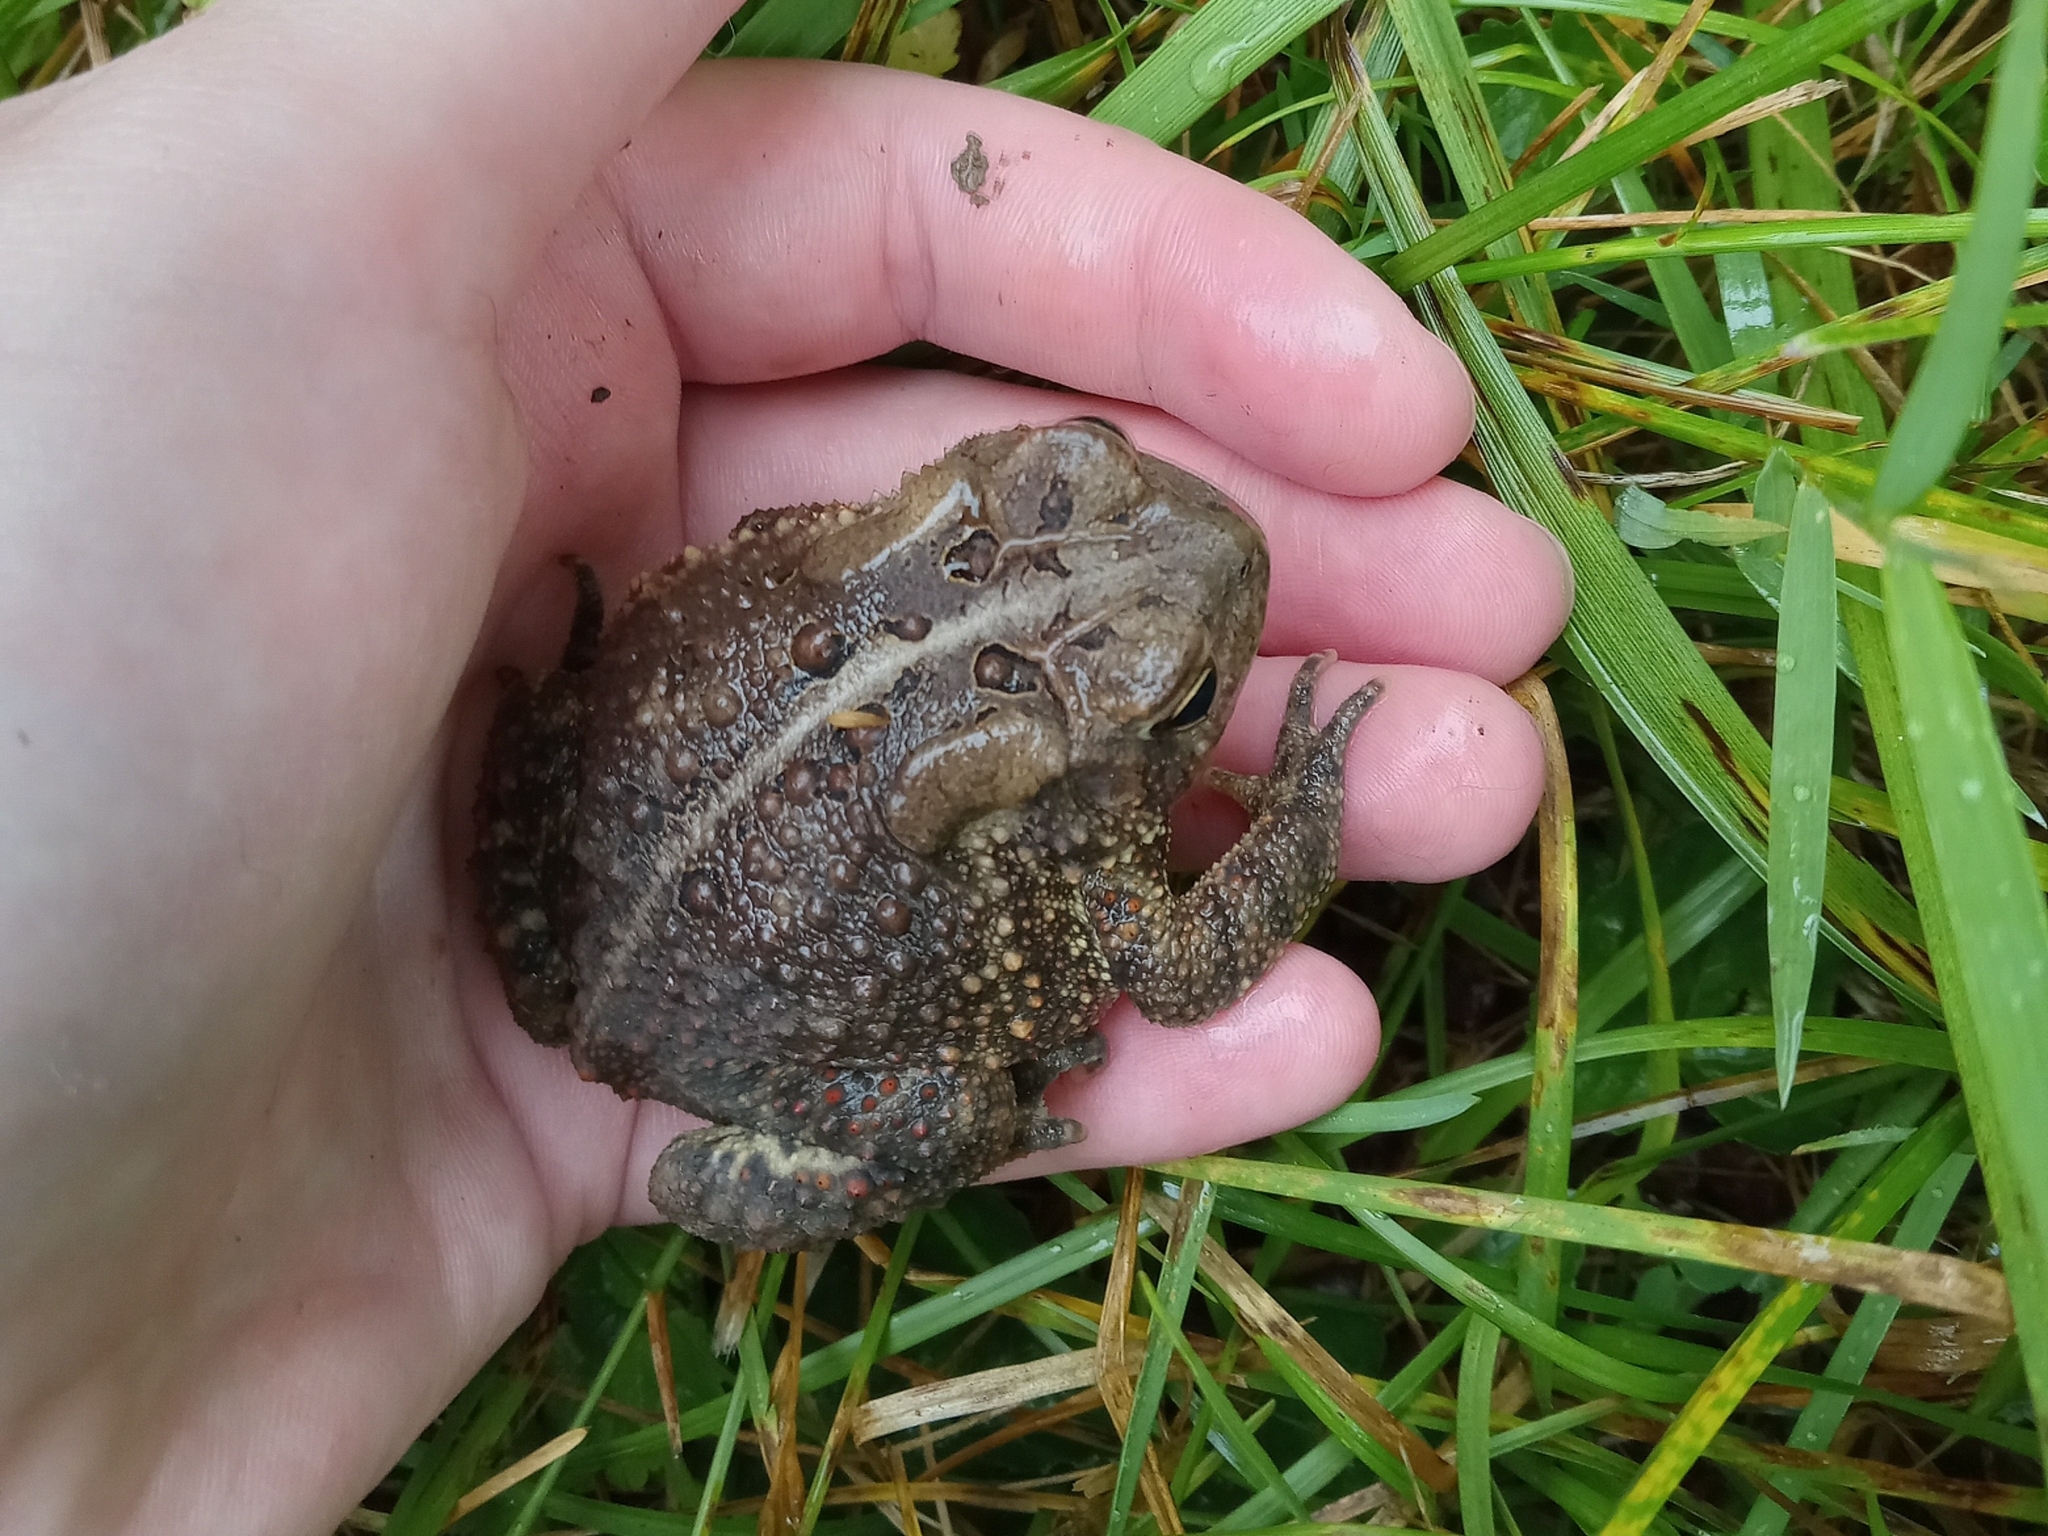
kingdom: Animalia
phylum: Chordata
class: Amphibia
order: Anura
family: Bufonidae
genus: Anaxyrus
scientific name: Anaxyrus americanus
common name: American toad
